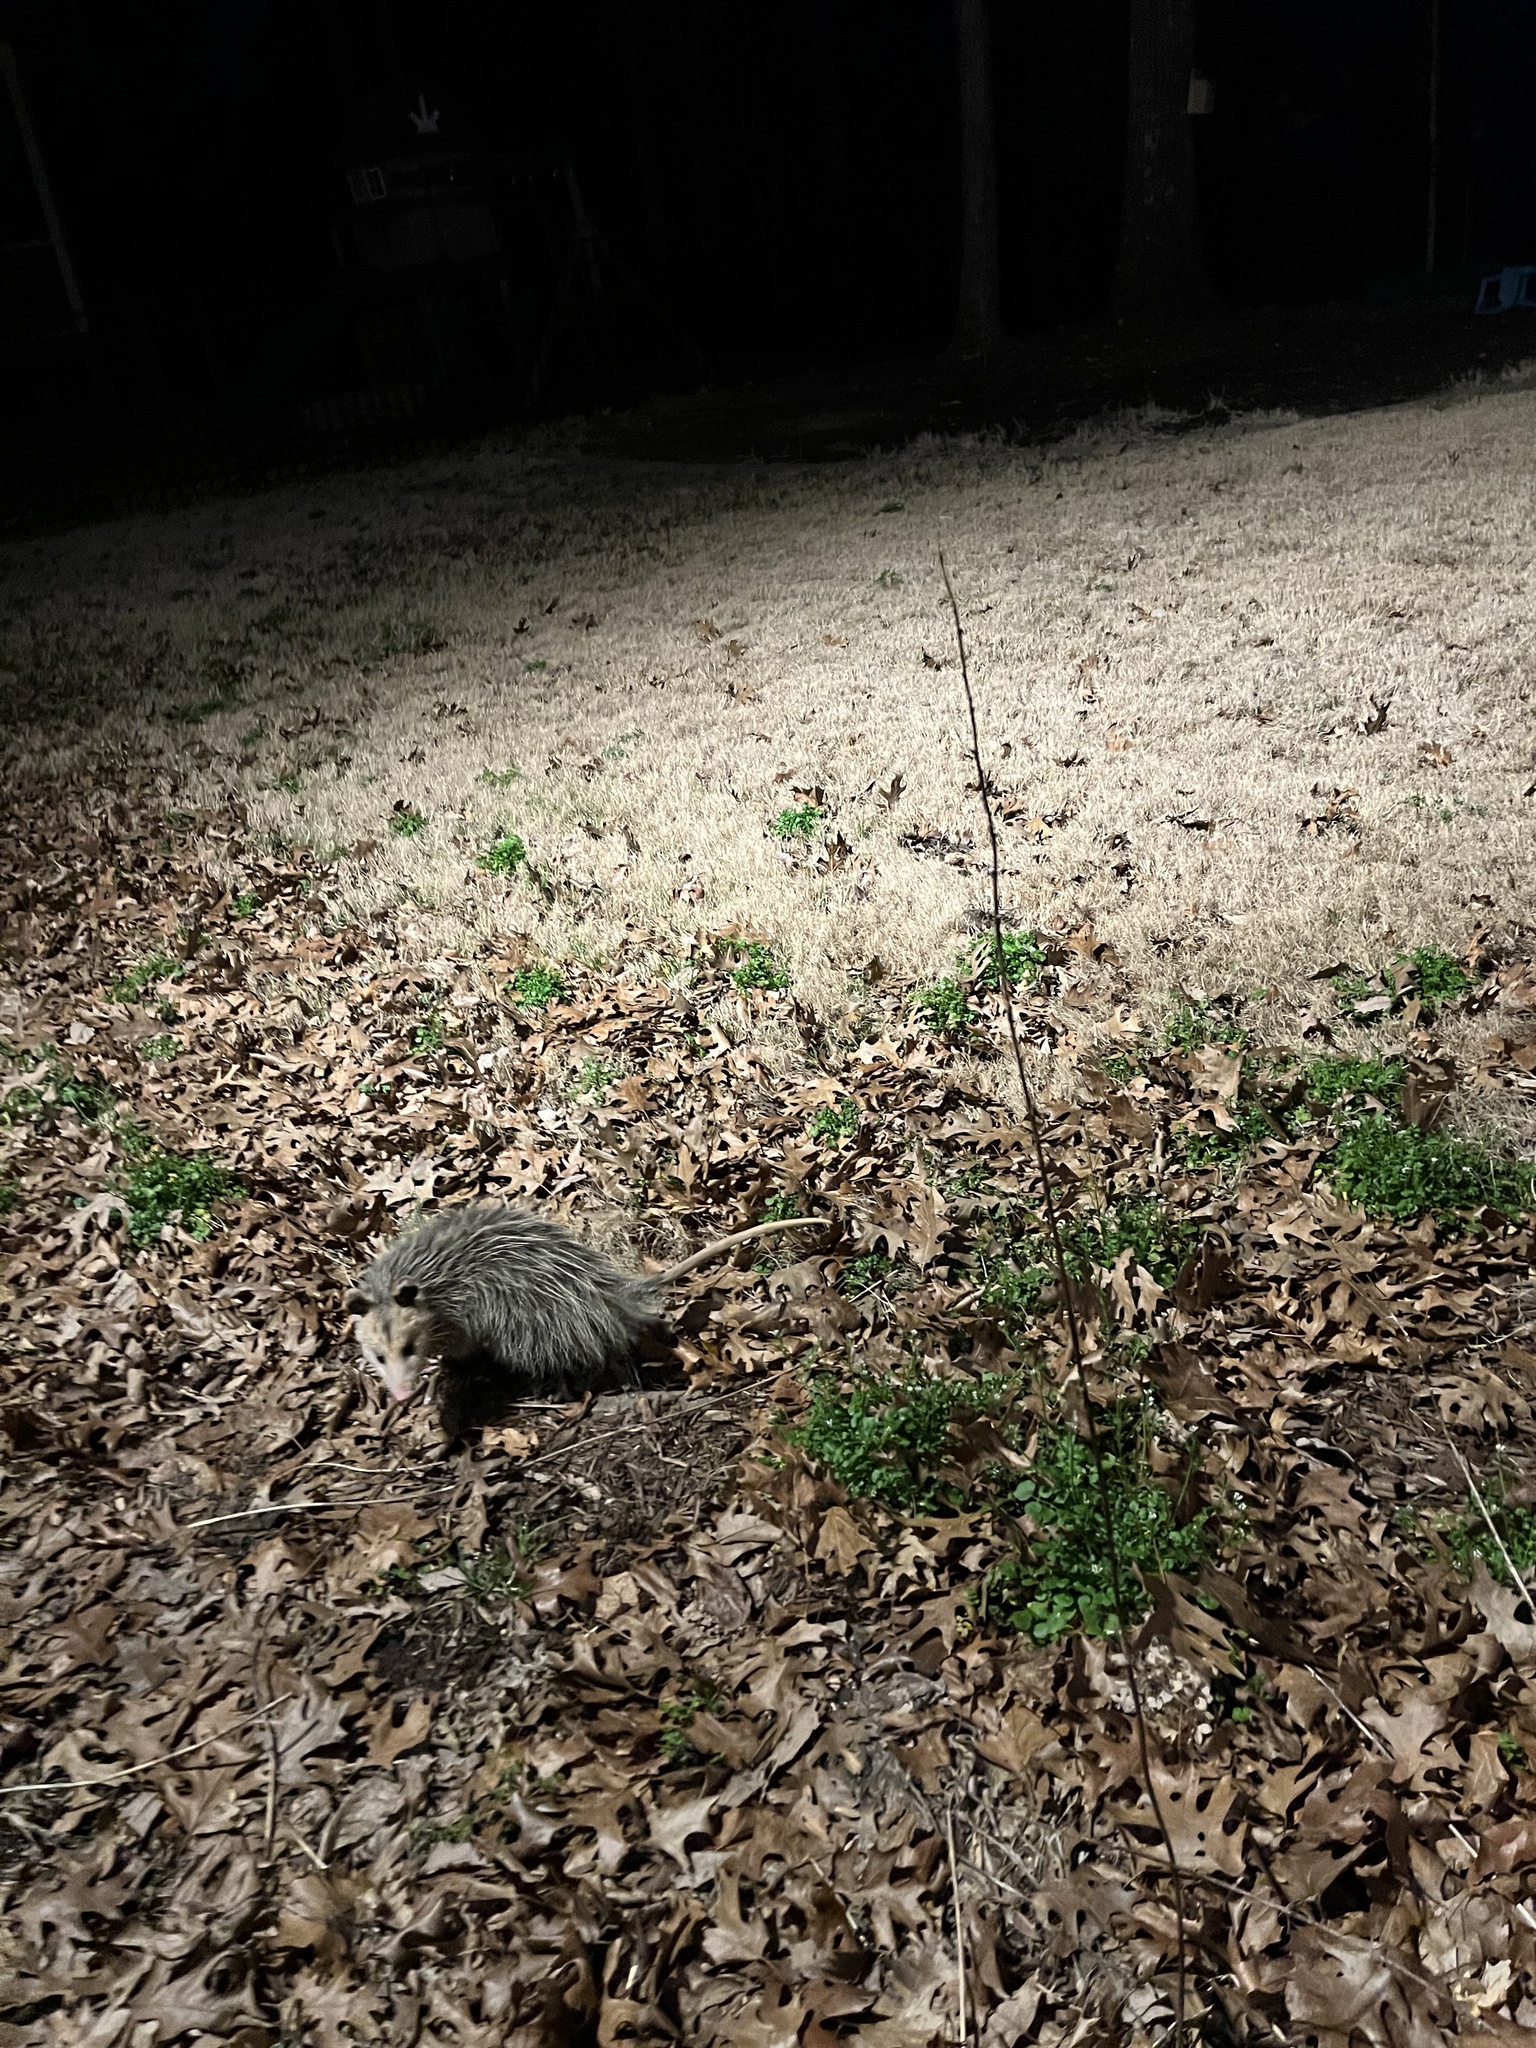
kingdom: Animalia
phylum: Chordata
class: Mammalia
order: Didelphimorphia
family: Didelphidae
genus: Didelphis
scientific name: Didelphis virginiana
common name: Virginia opossum
